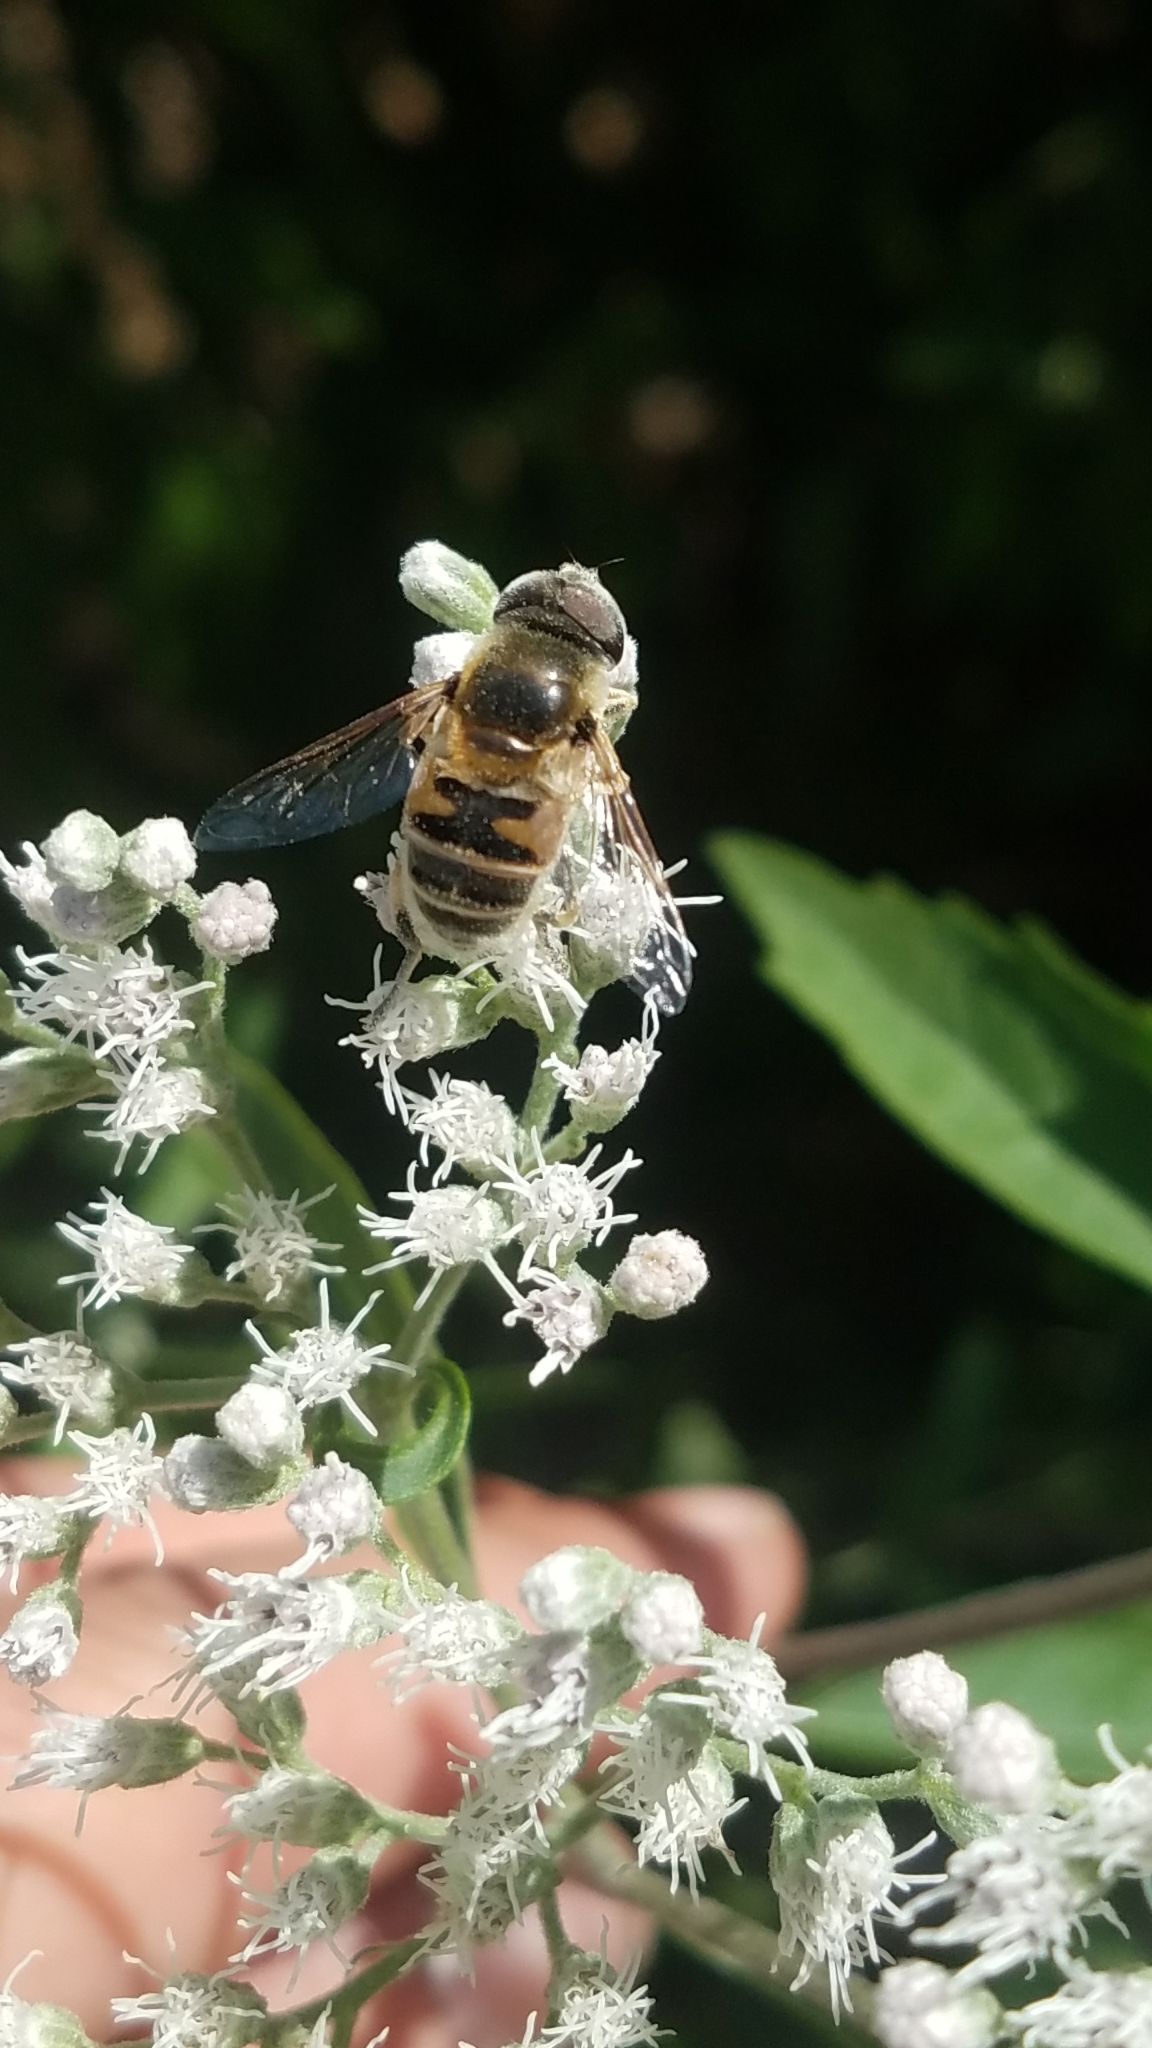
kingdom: Animalia
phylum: Arthropoda
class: Insecta
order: Diptera
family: Syrphidae
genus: Eristalis
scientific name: Eristalis stipator
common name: Yellow-shouldered drone fly
